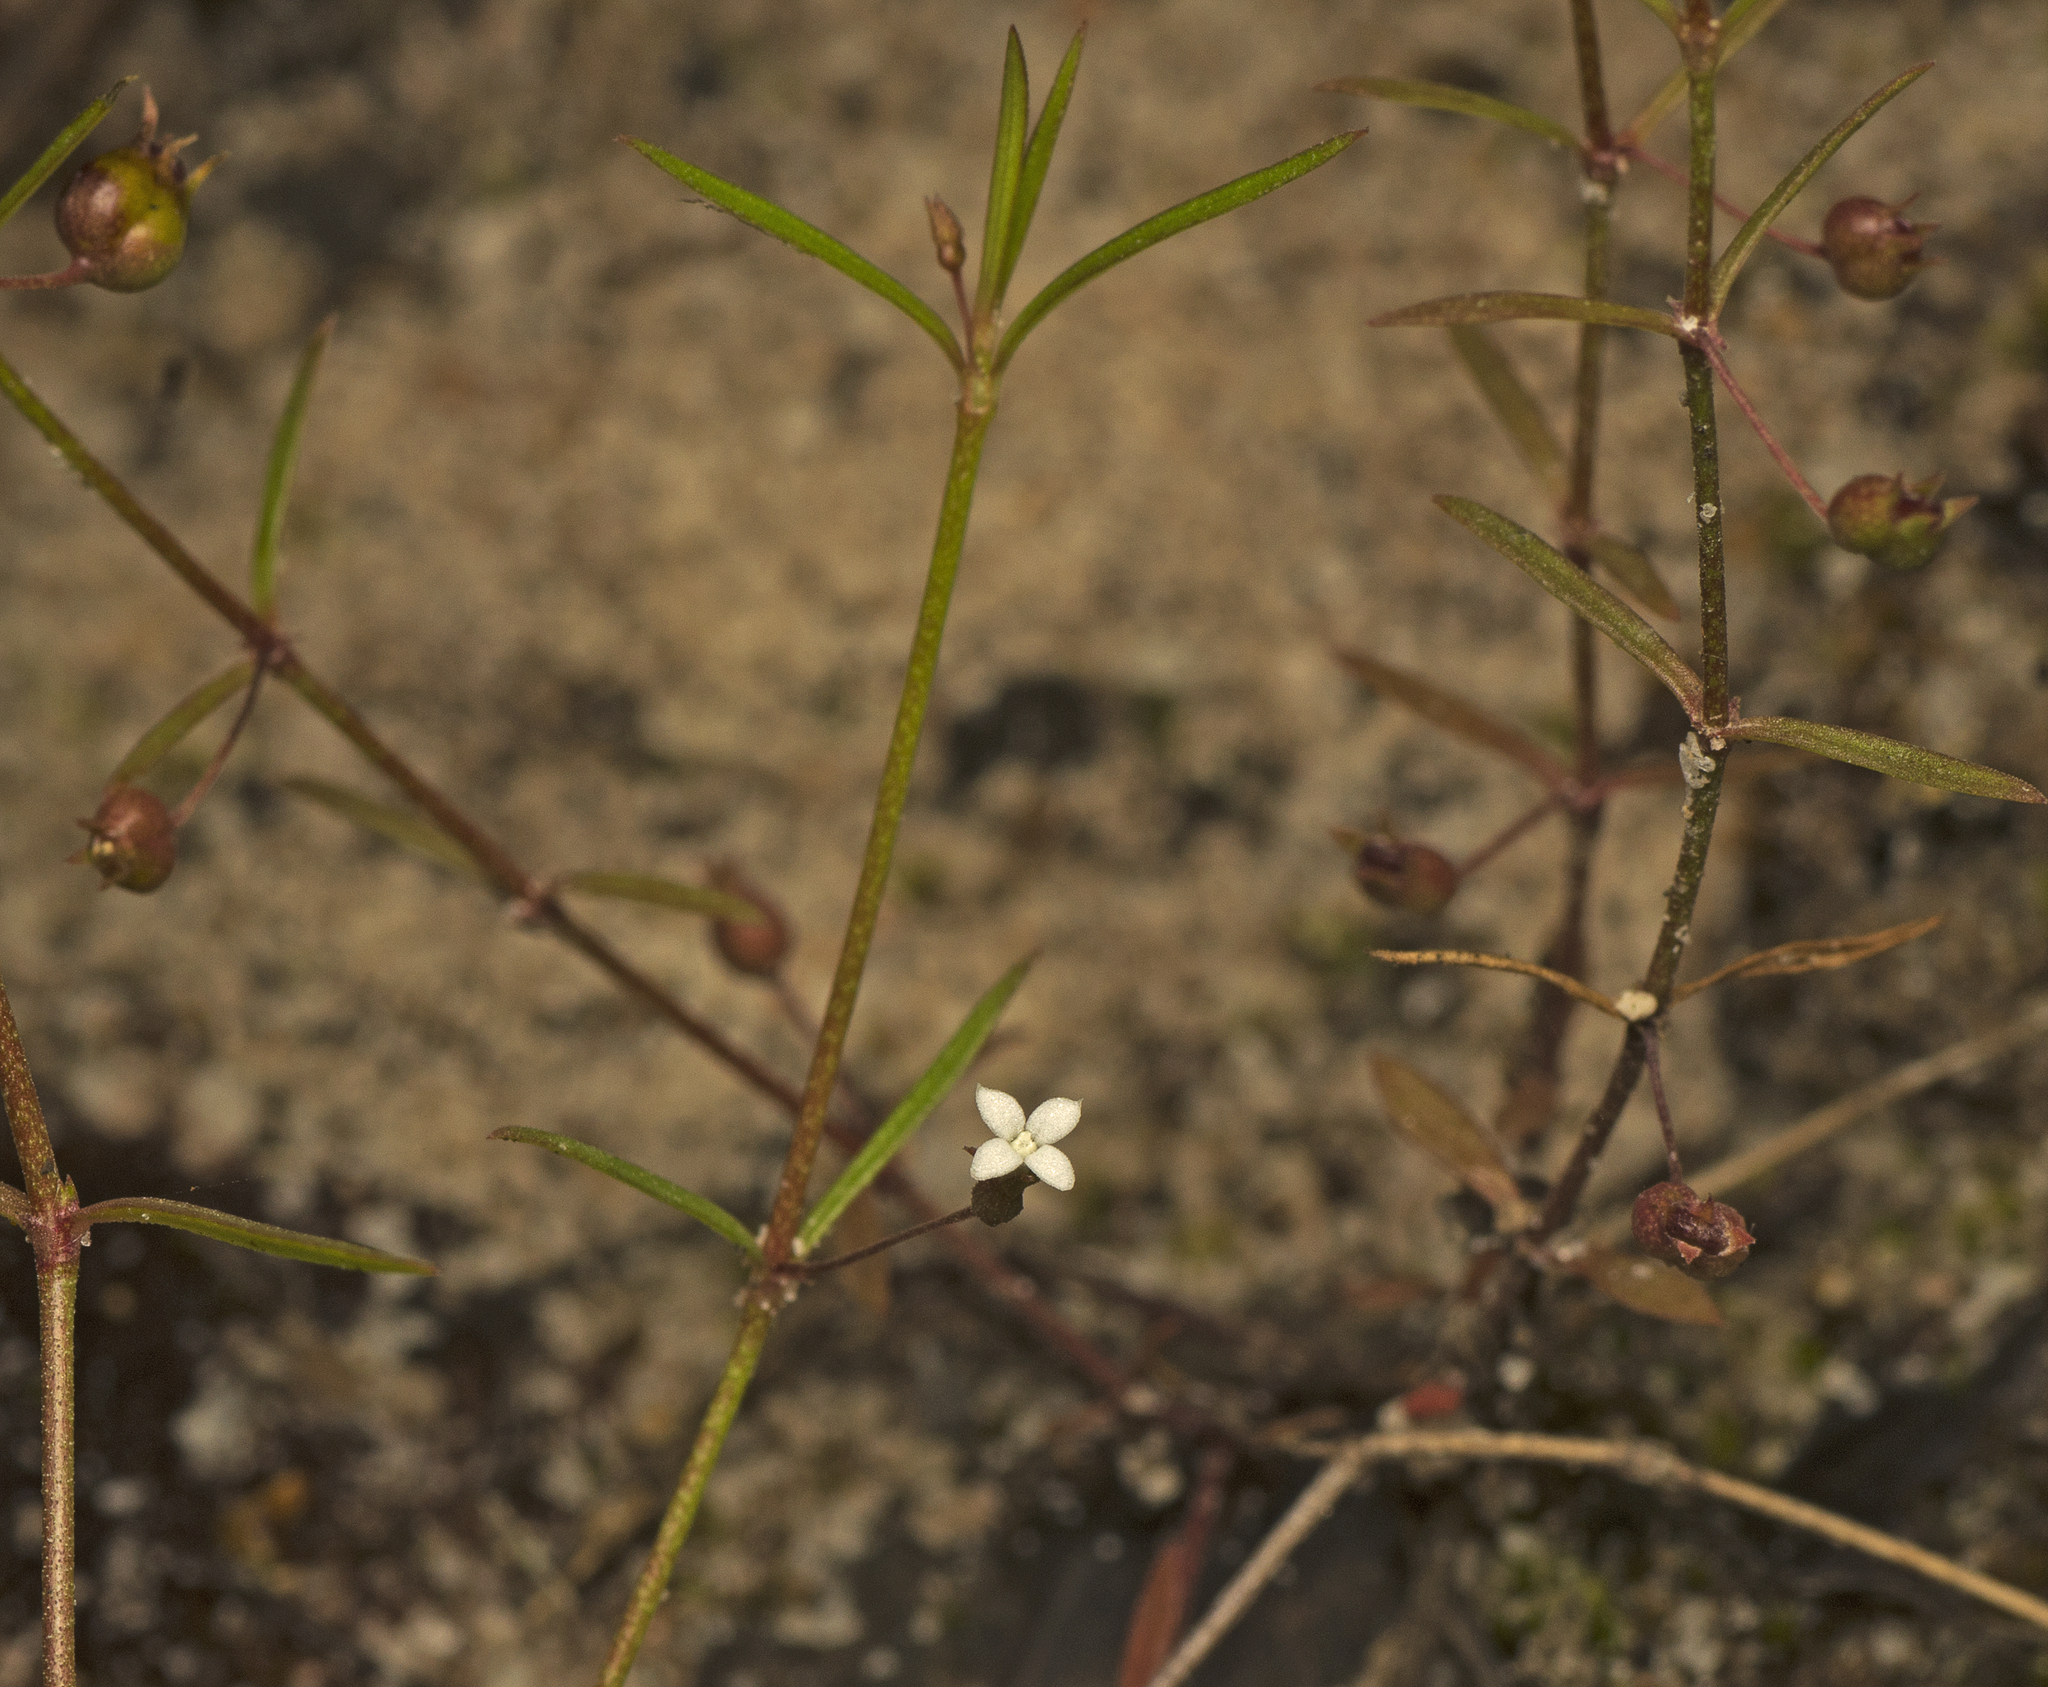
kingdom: Plantae
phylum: Tracheophyta
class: Magnoliopsida
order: Gentianales
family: Rubiaceae
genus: Scleromitrion
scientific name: Scleromitrion galioides
